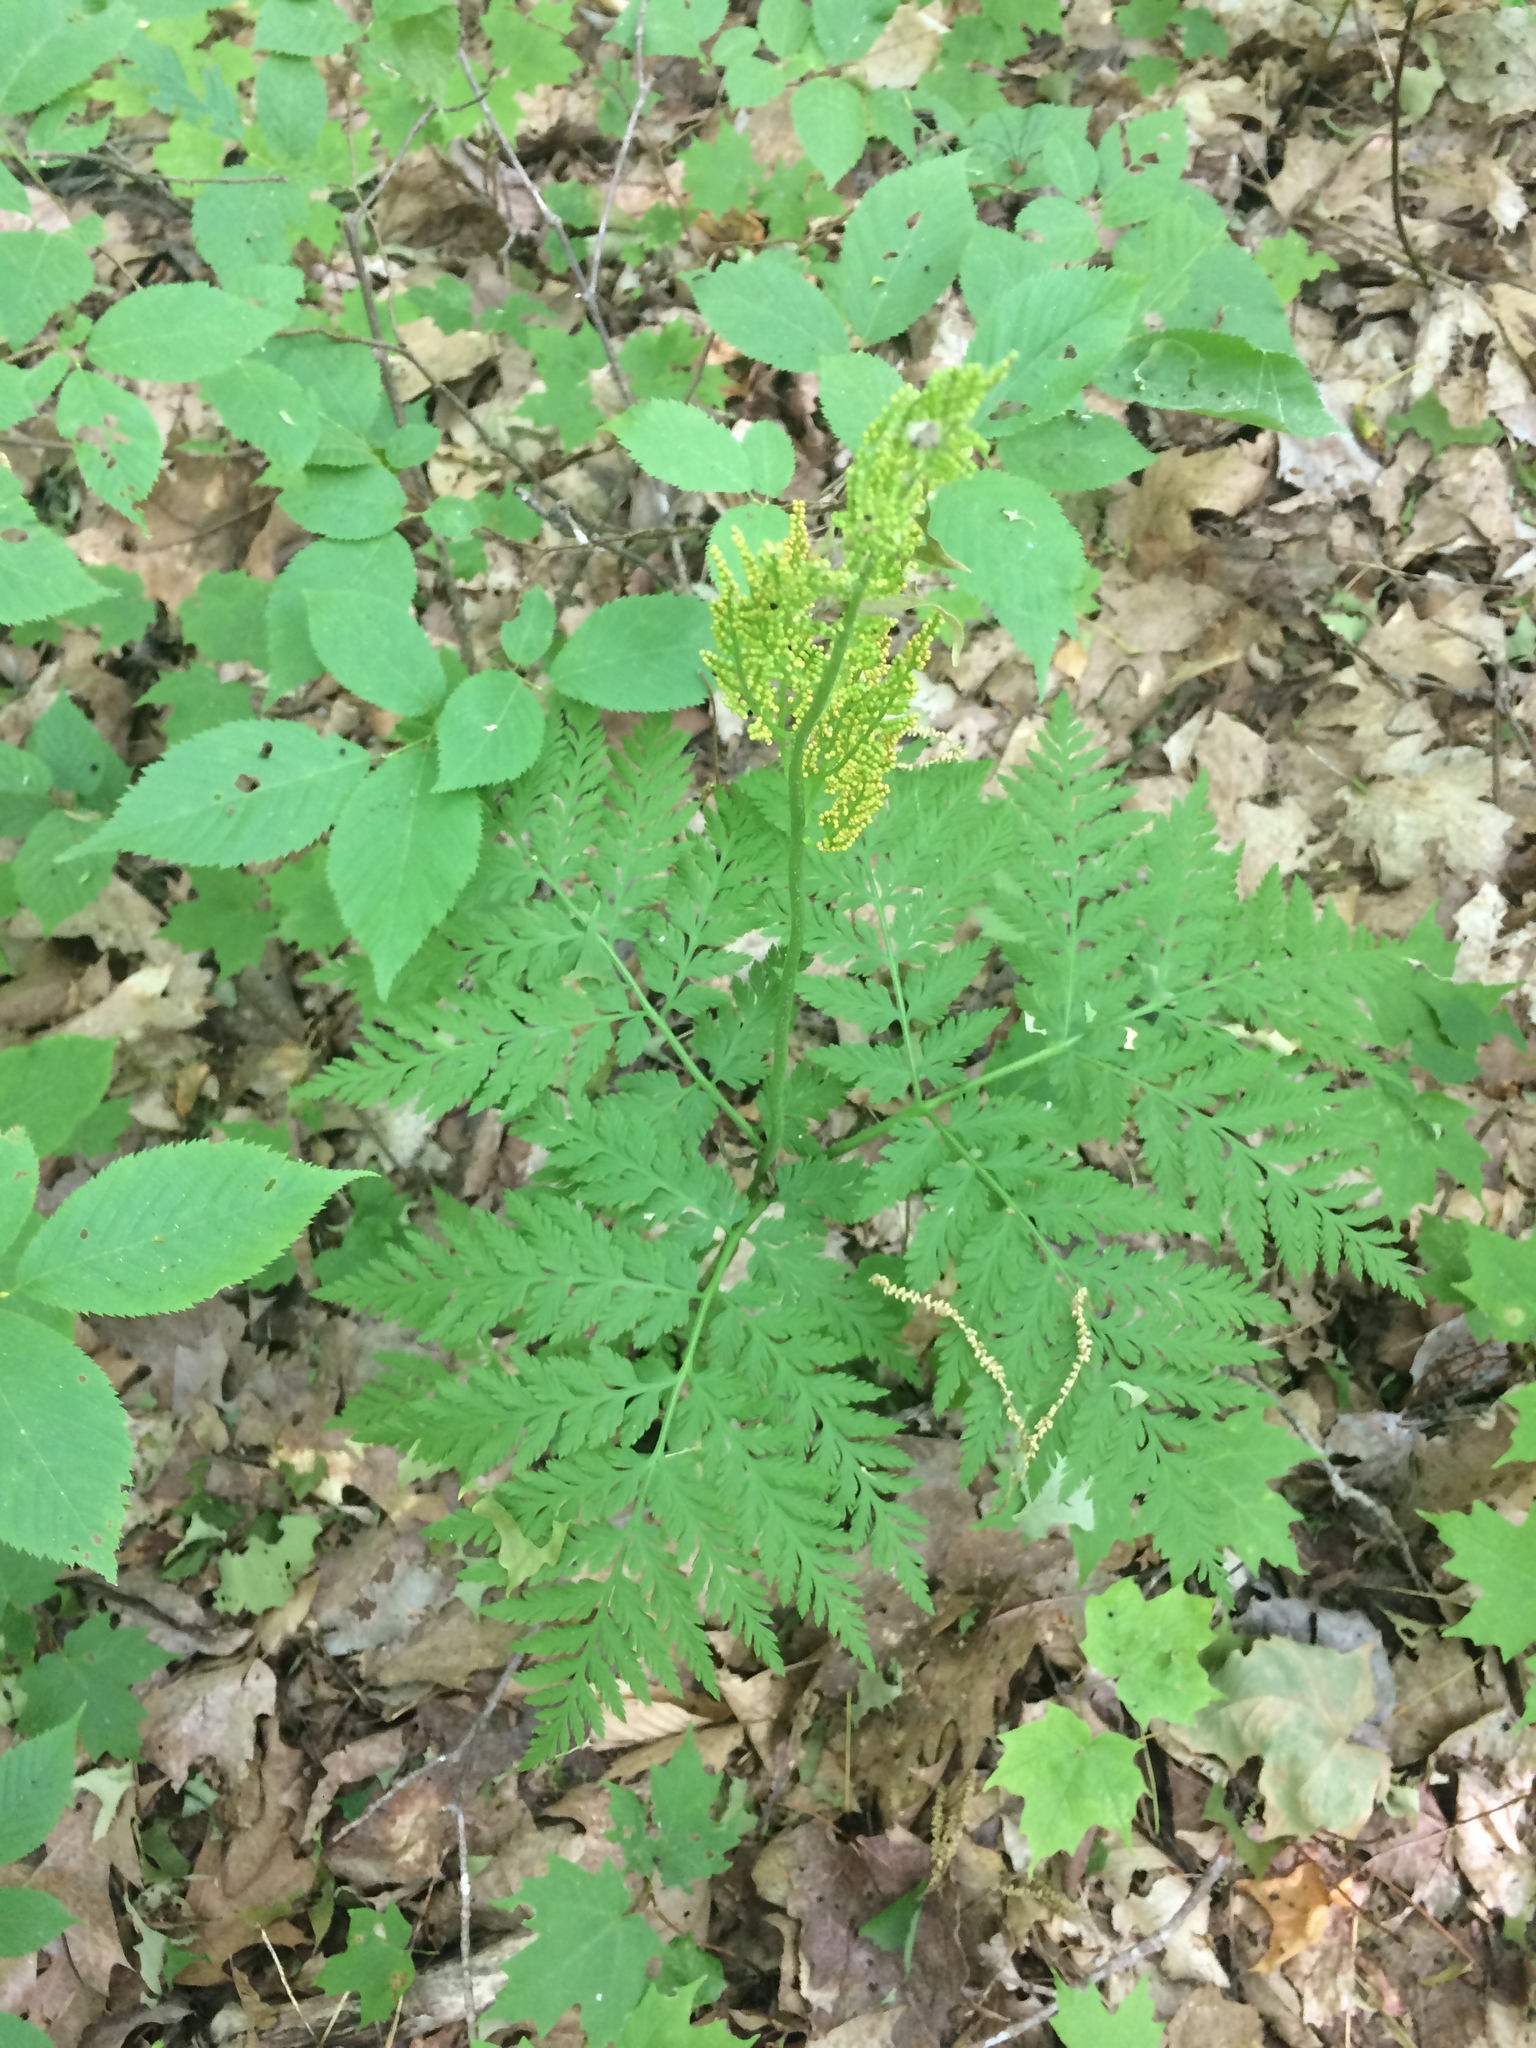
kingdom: Plantae
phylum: Tracheophyta
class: Polypodiopsida
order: Ophioglossales
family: Ophioglossaceae
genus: Botrypus
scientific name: Botrypus virginianus
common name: Common grapefern
